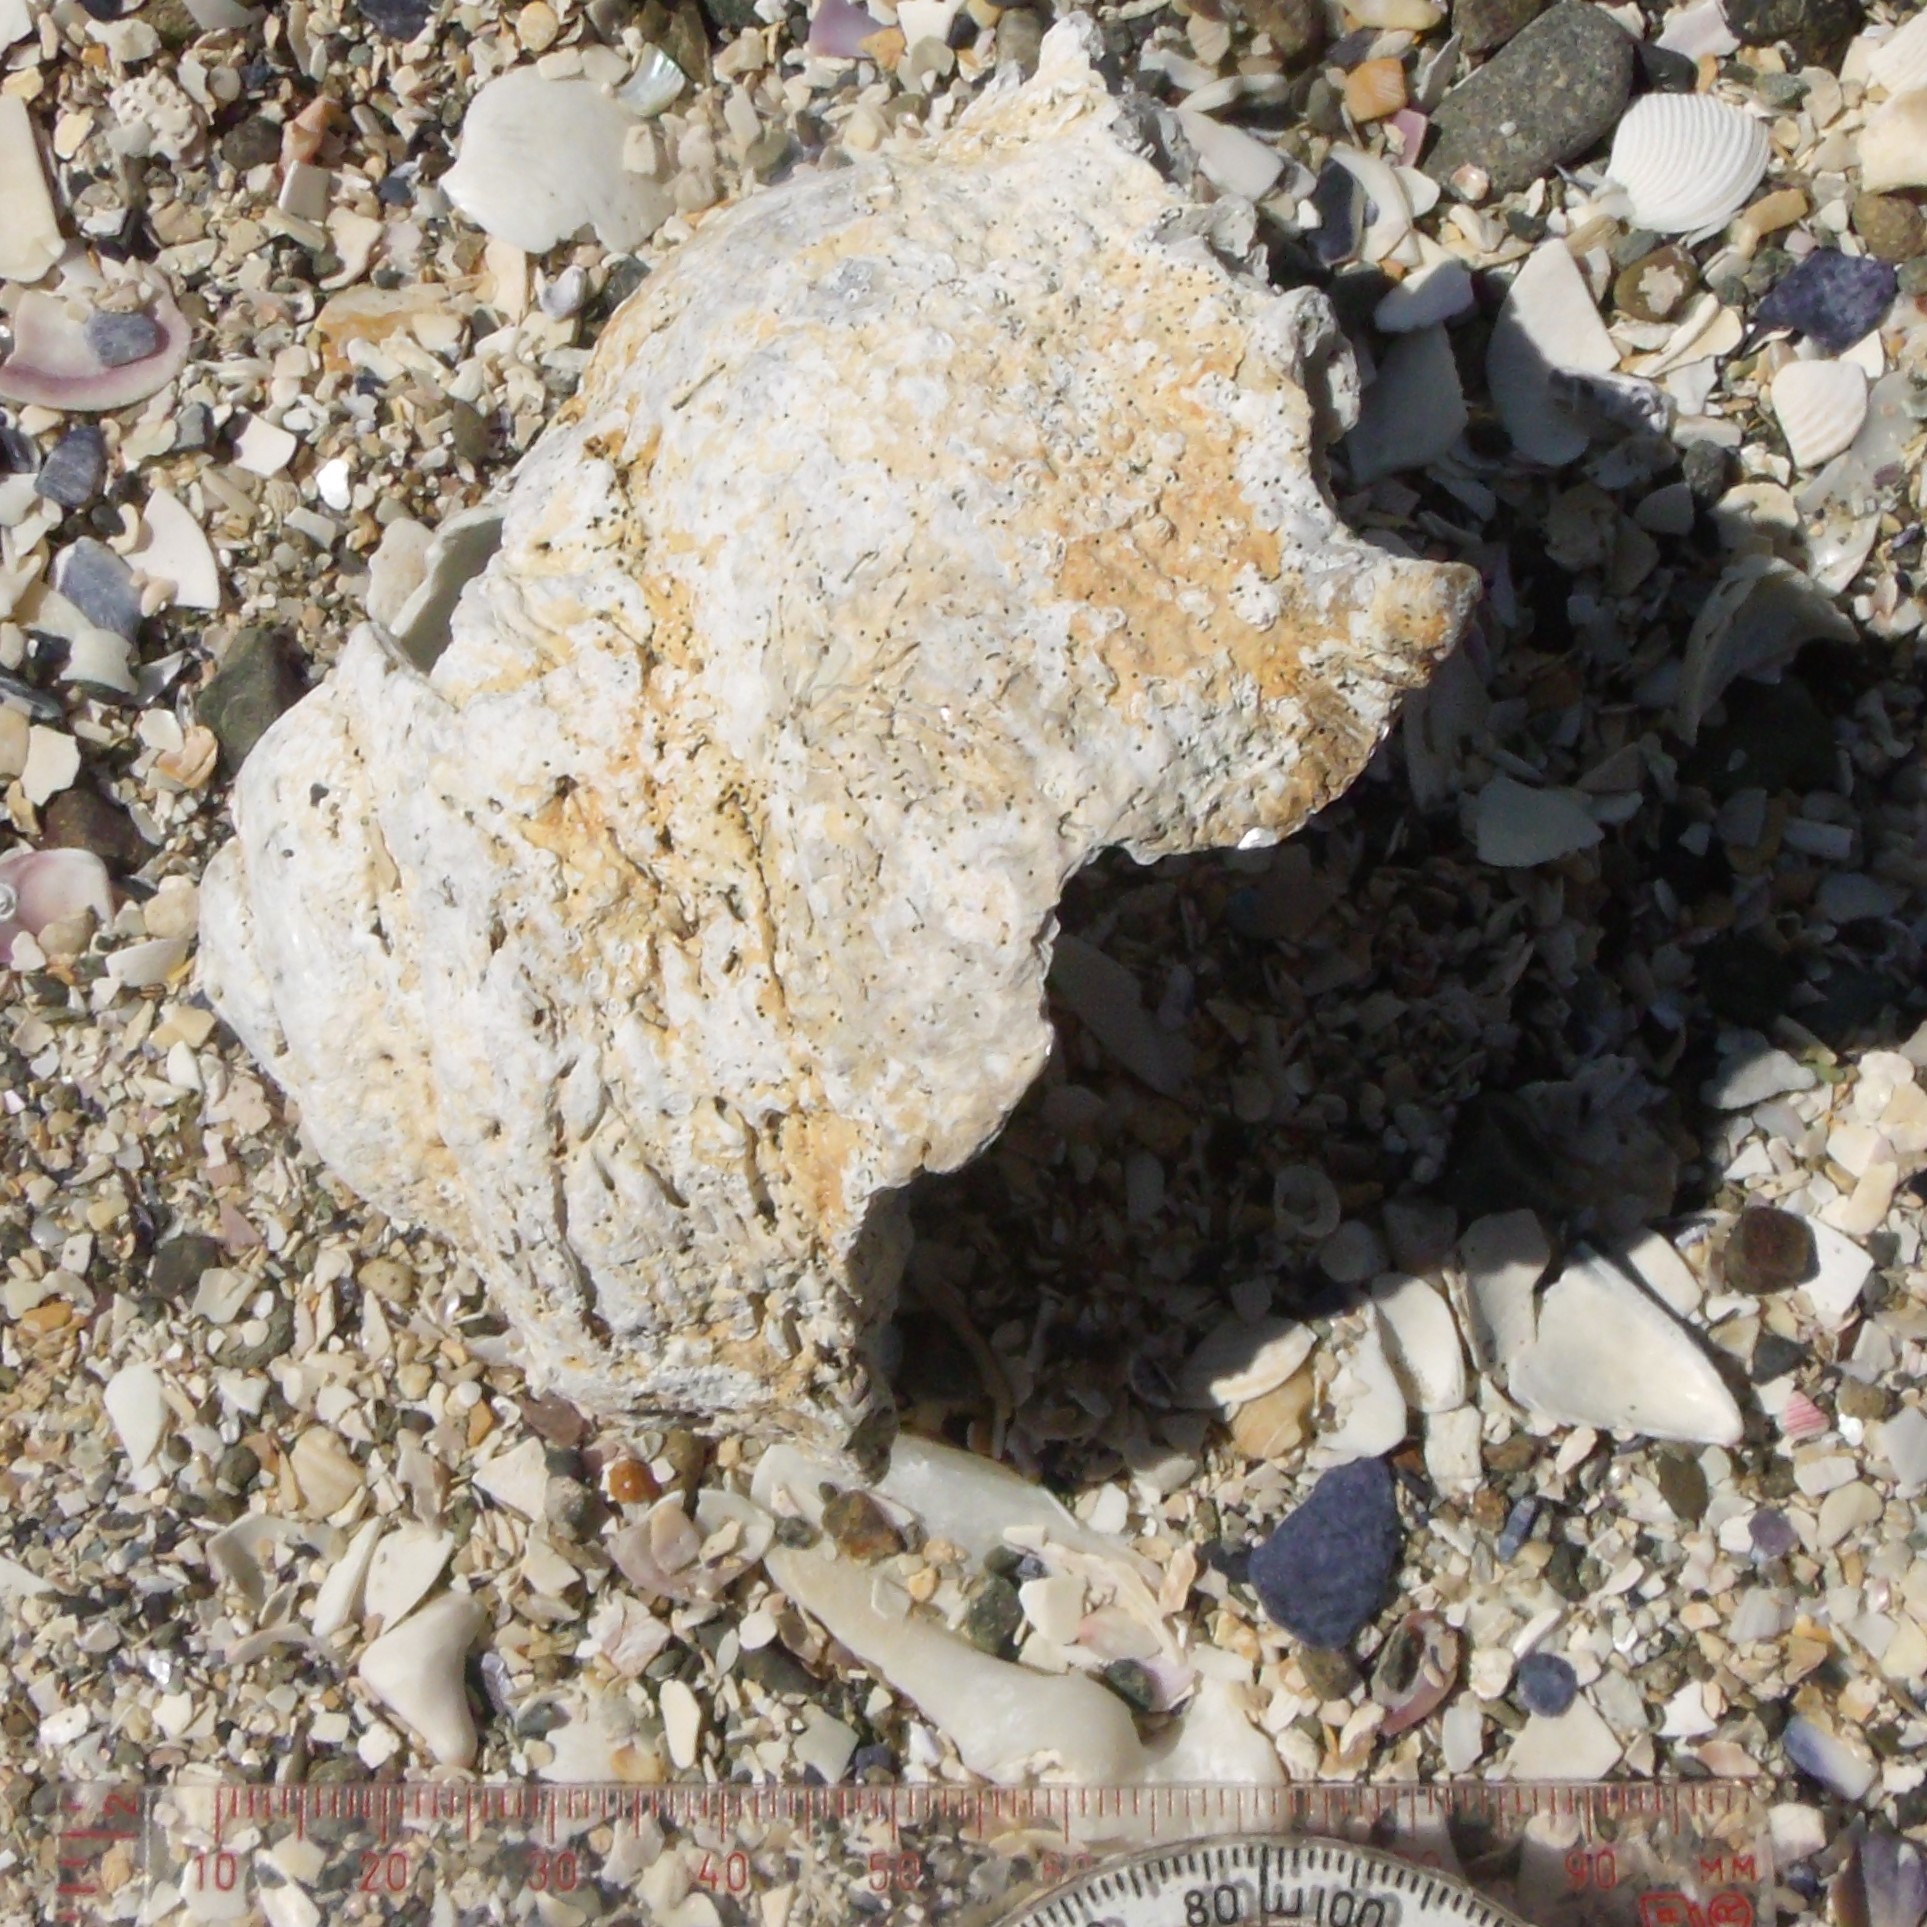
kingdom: Animalia
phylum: Mollusca
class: Gastropoda
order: Trochida
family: Turbinidae
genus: Astraea
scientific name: Astraea heliotropium
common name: Sun shell
